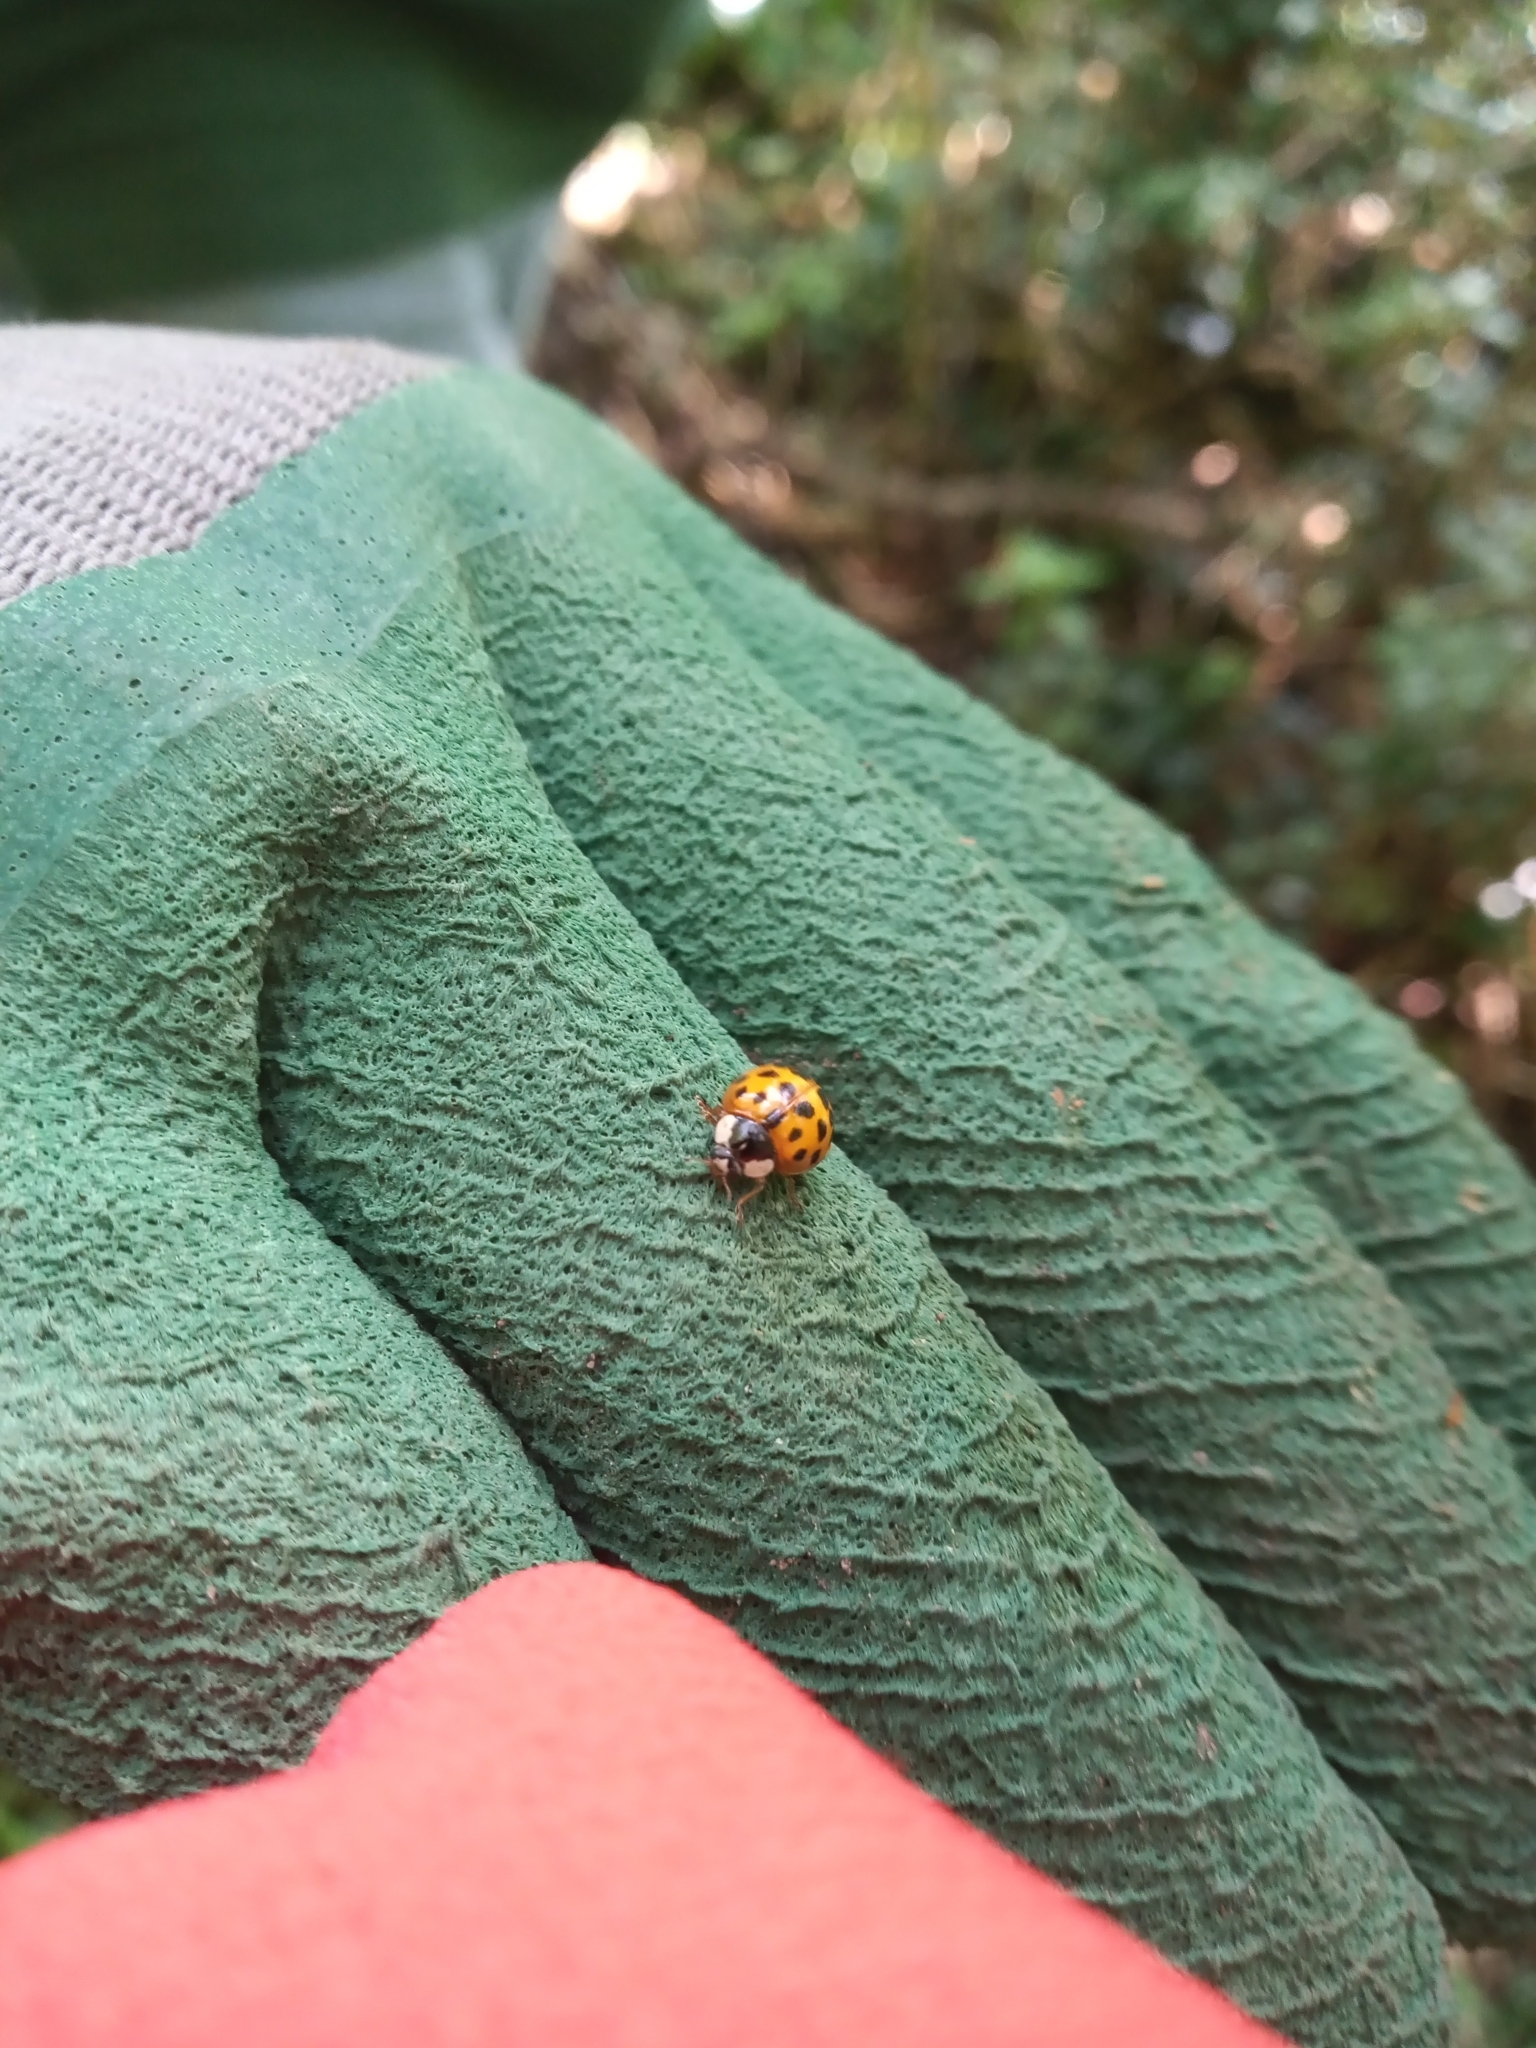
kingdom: Animalia
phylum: Arthropoda
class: Insecta
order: Coleoptera
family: Coccinellidae
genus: Harmonia
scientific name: Harmonia axyridis
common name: Harlequin ladybird
